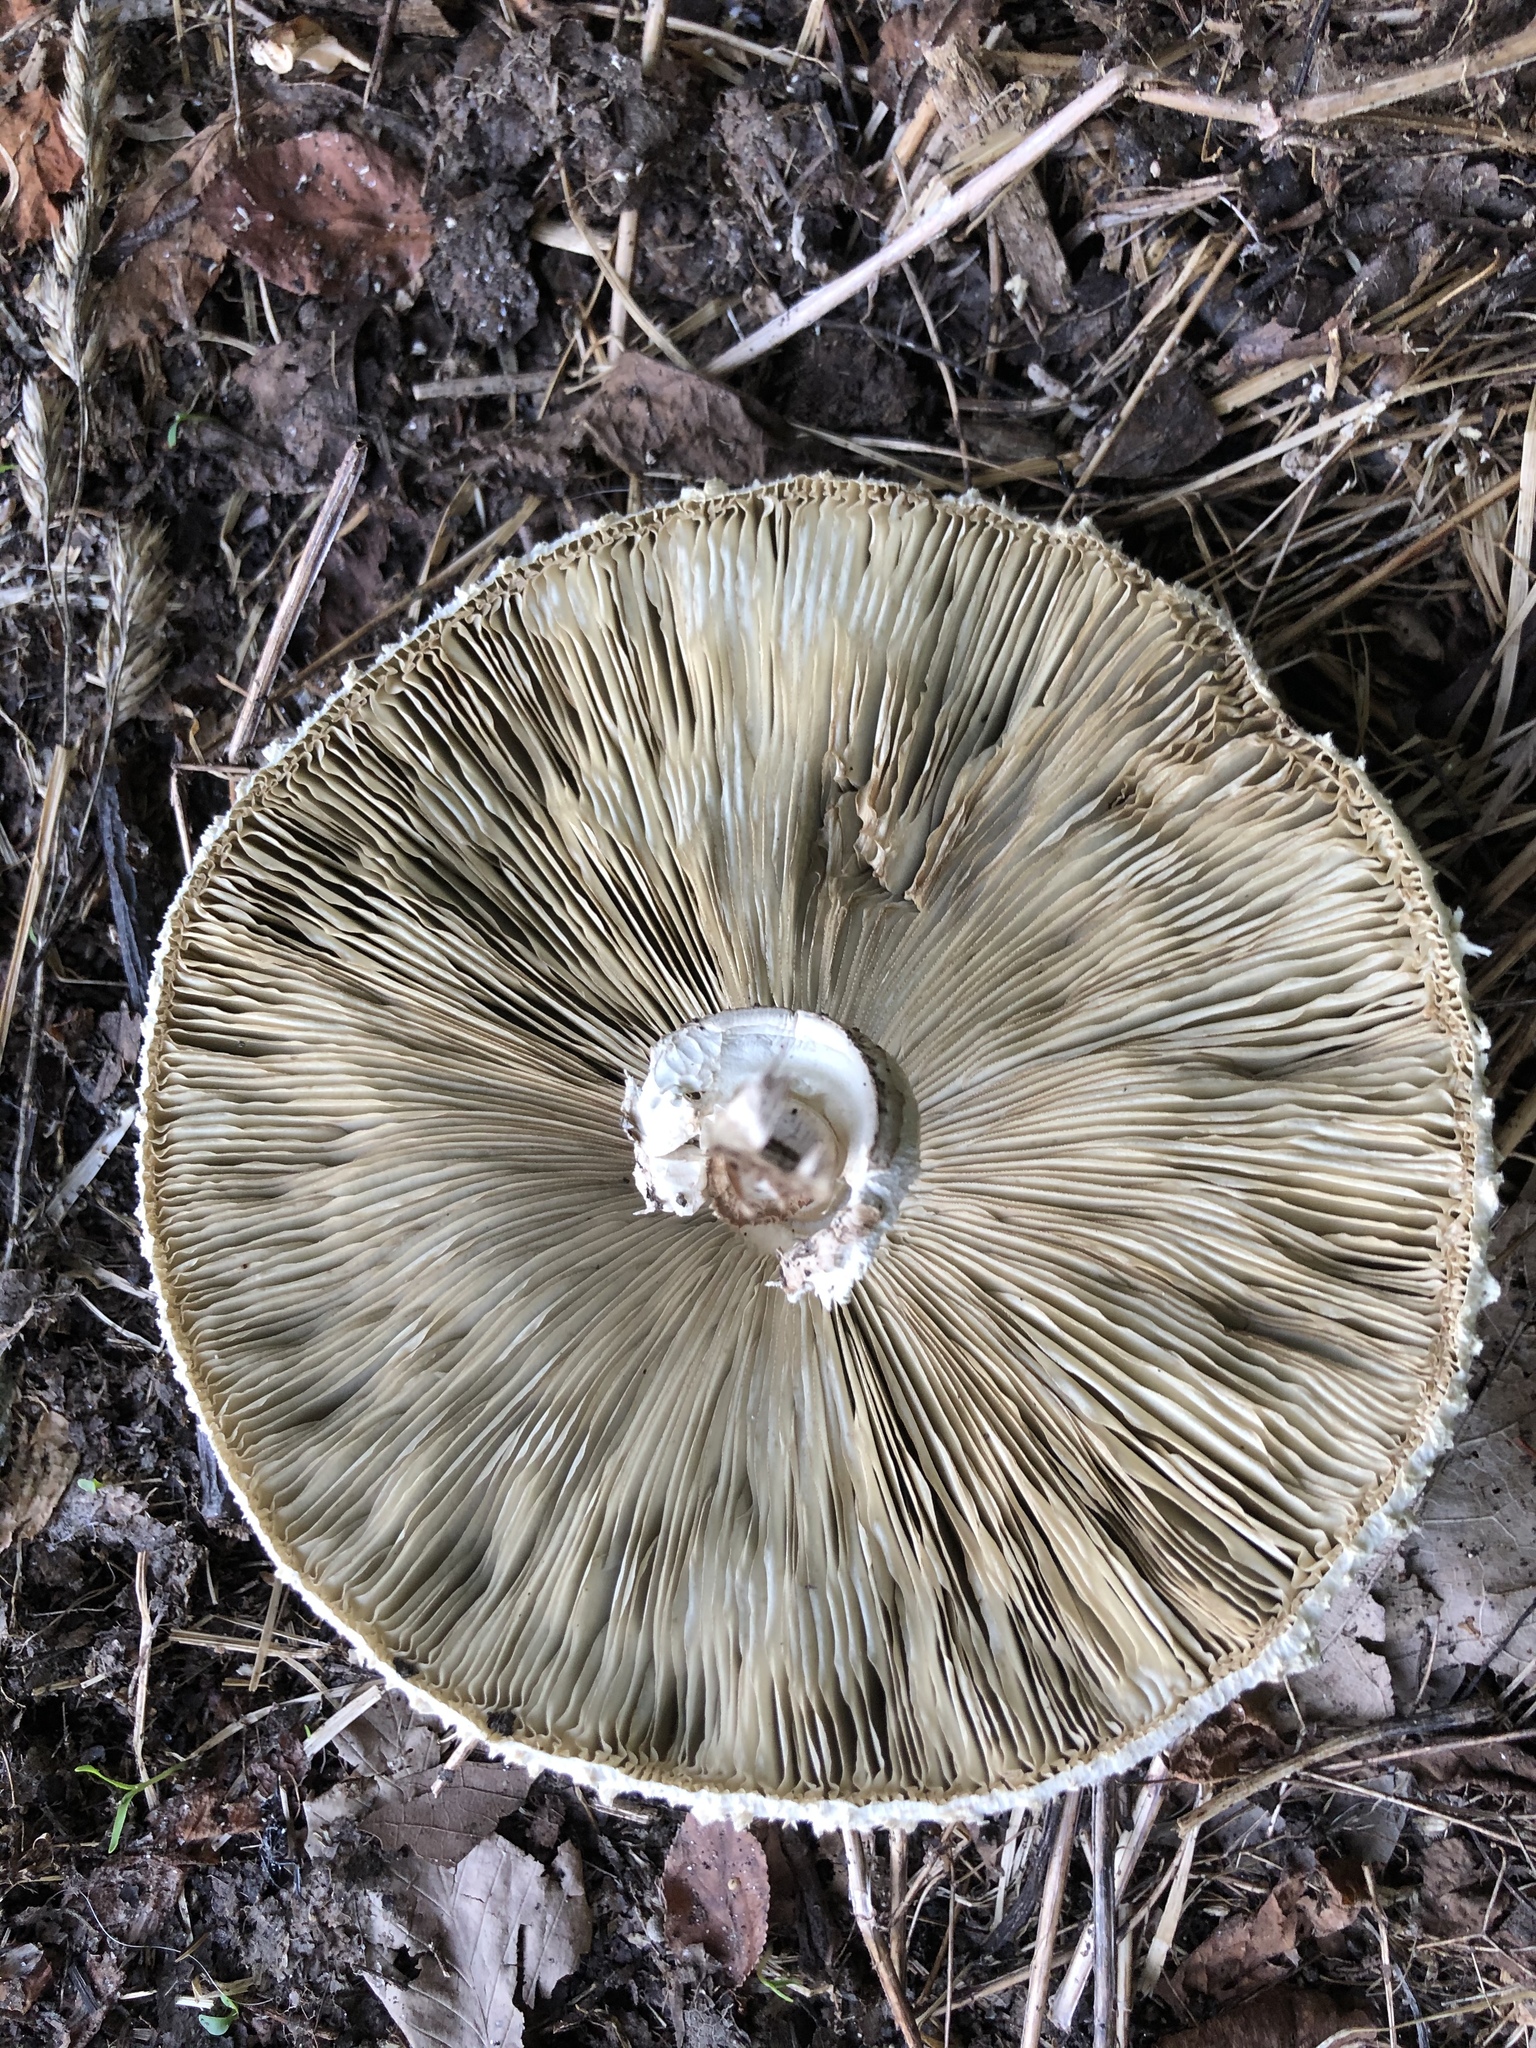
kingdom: Fungi
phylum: Basidiomycota
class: Agaricomycetes
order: Agaricales
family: Agaricaceae
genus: Chlorophyllum
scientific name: Chlorophyllum molybdites
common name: False parasol
